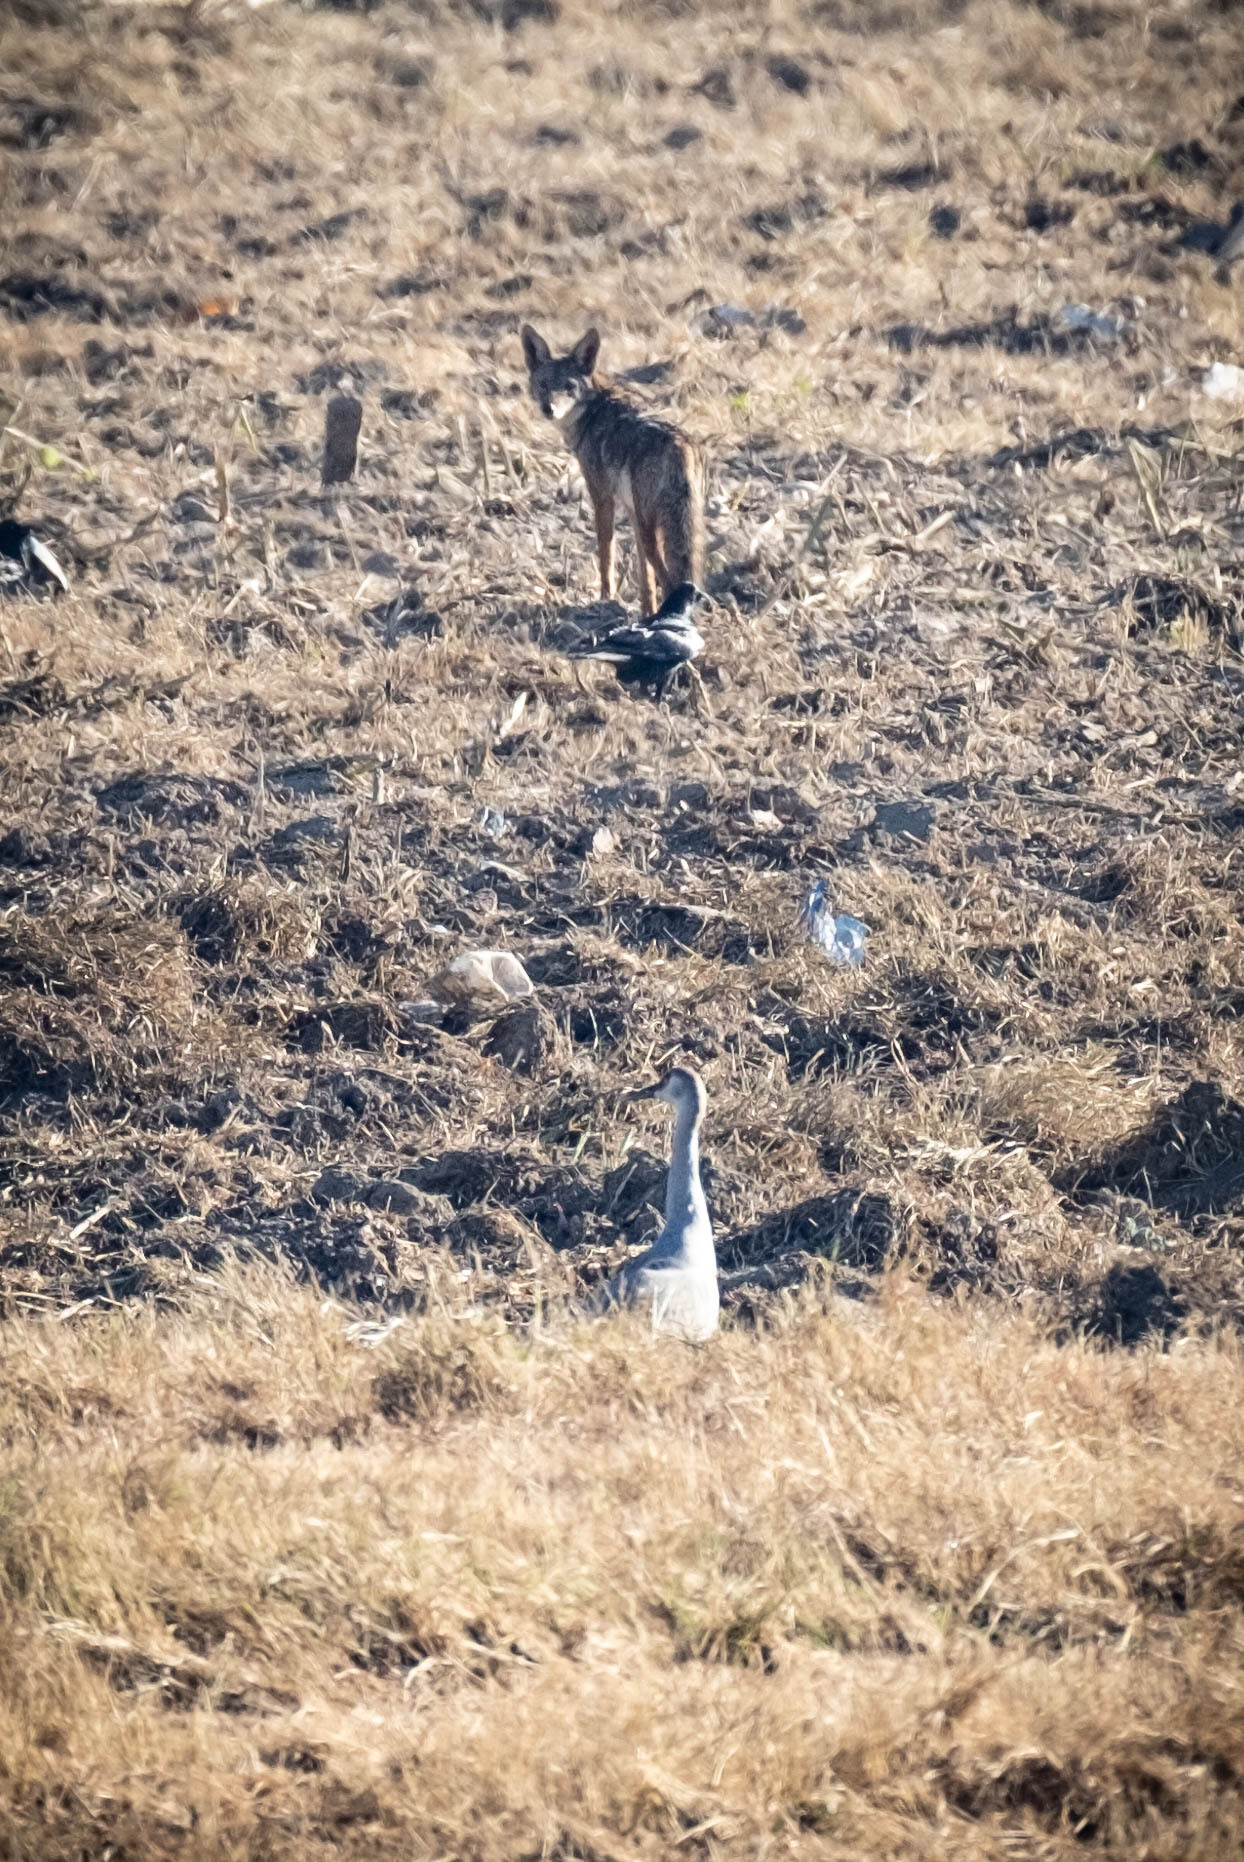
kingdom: Animalia
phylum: Chordata
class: Aves
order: Gruiformes
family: Gruidae
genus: Grus
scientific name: Grus canadensis
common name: Sandhill crane
